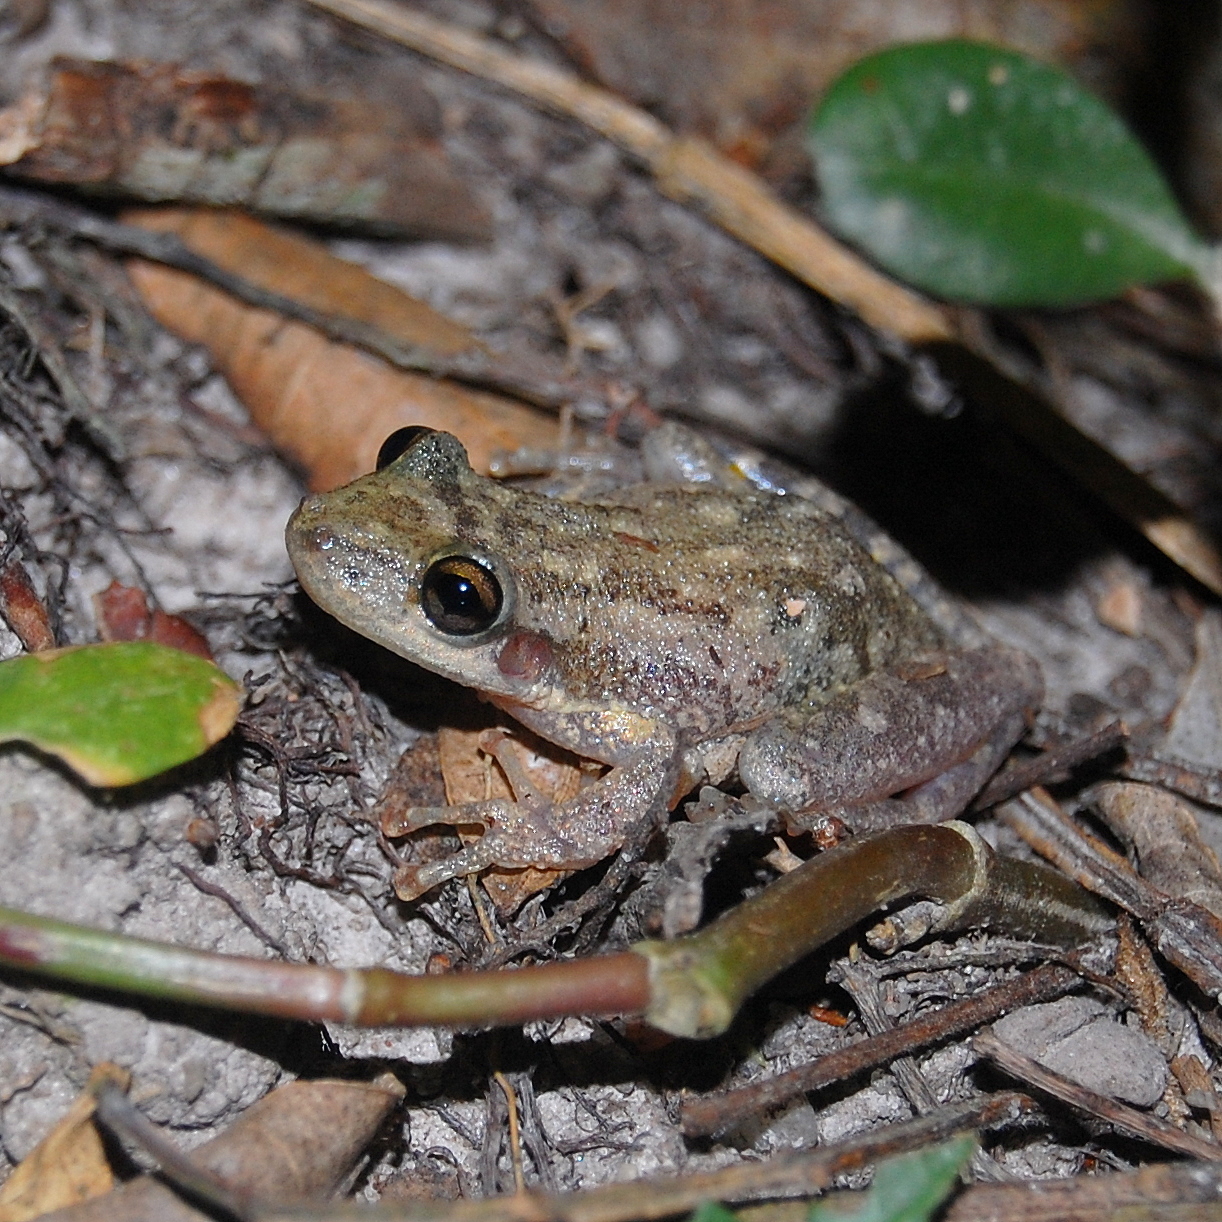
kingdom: Animalia
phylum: Chordata
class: Amphibia
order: Anura
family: Hylidae
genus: Scinax
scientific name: Scinax fuscovarius
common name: Fuscous-blotched treefrog
